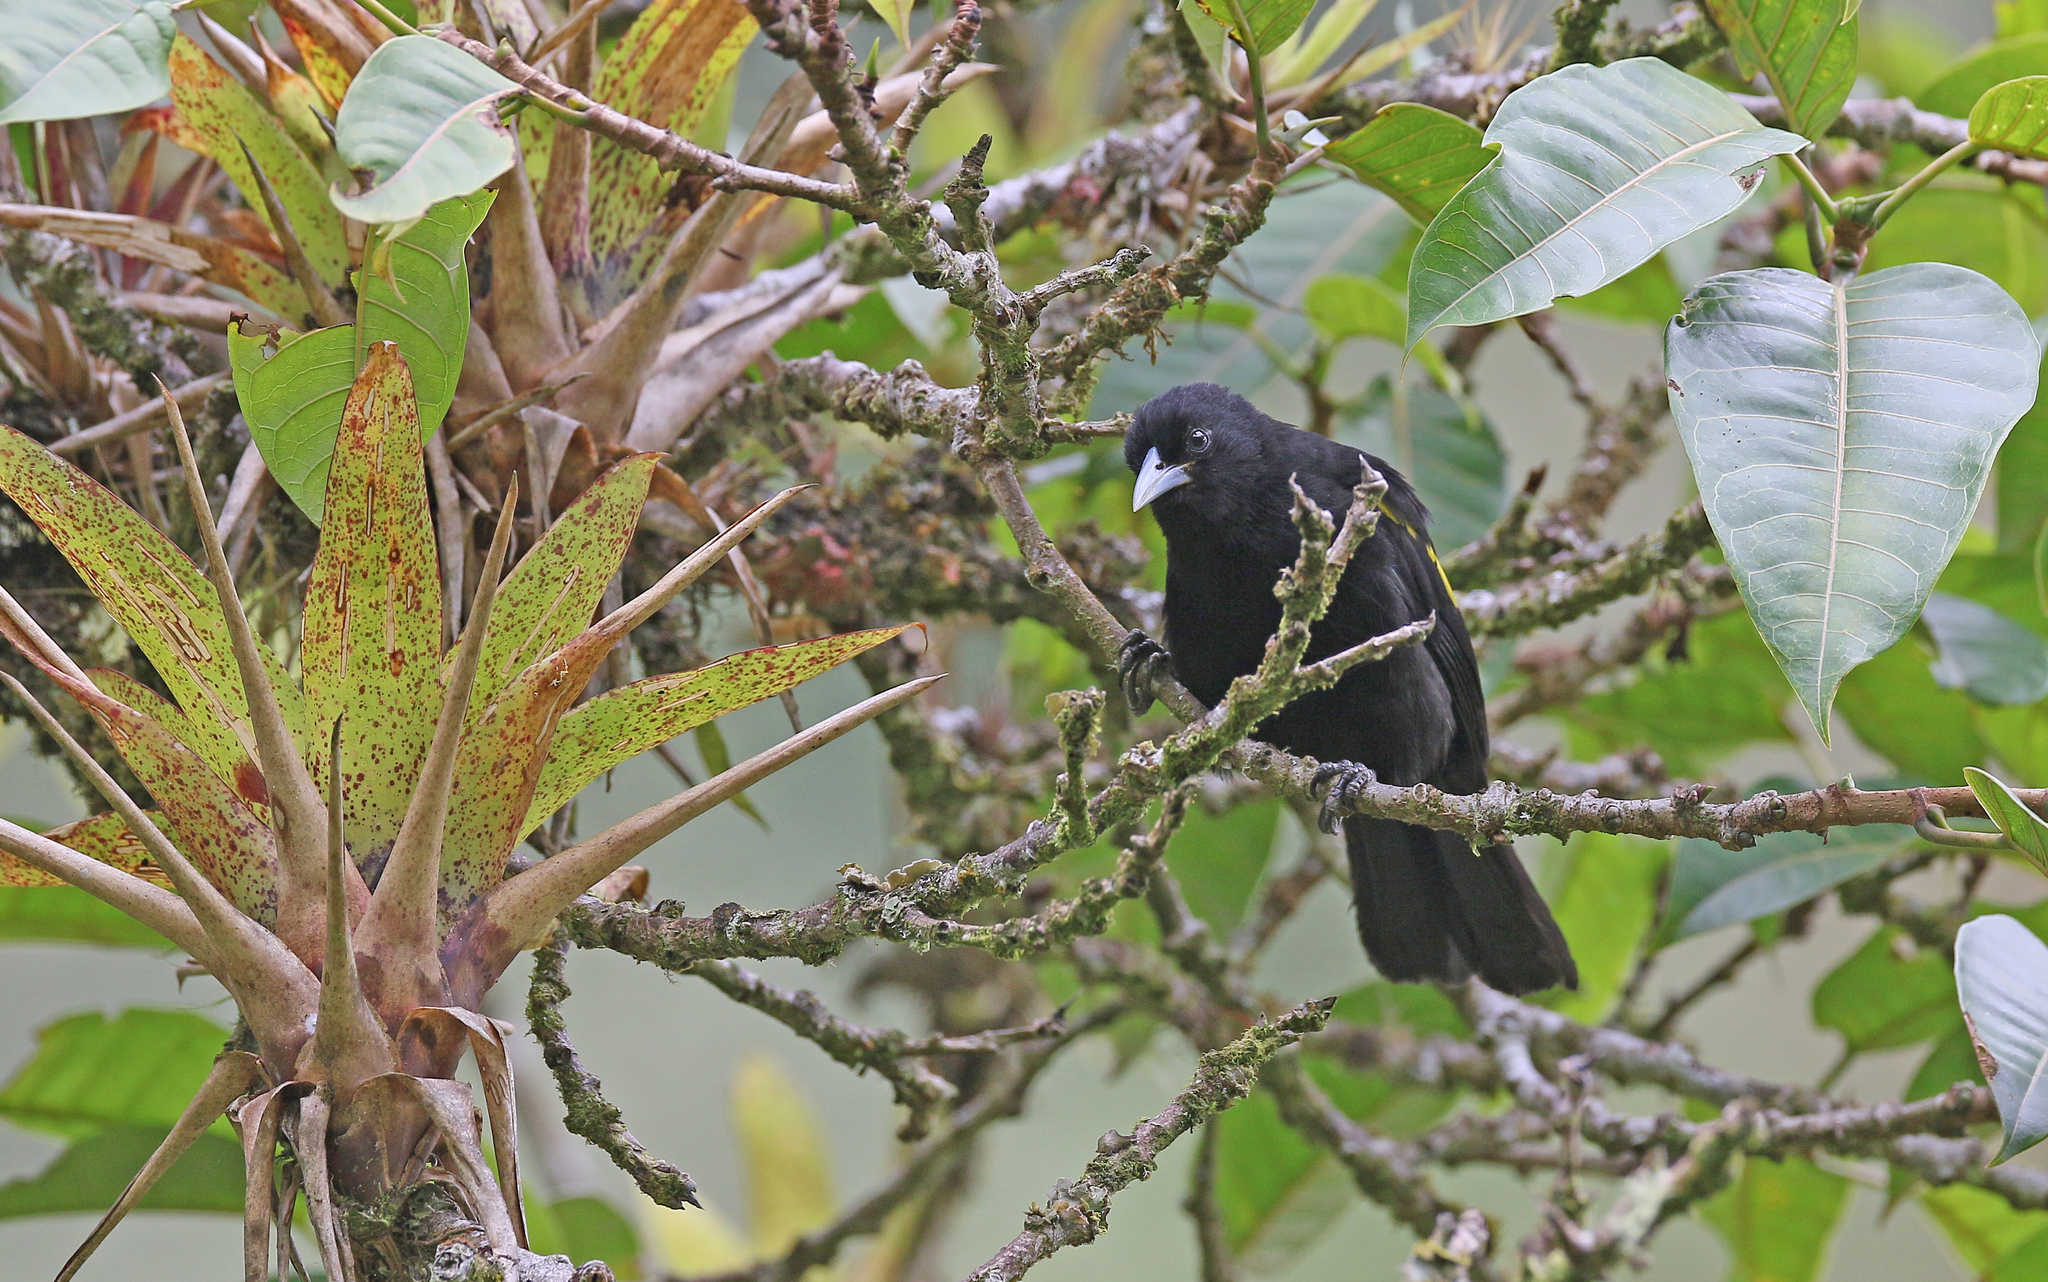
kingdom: Animalia
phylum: Chordata
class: Aves
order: Passeriformes
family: Icteridae
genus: Cacicus
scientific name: Cacicus chrysonotus
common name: Southern mountain cacique
